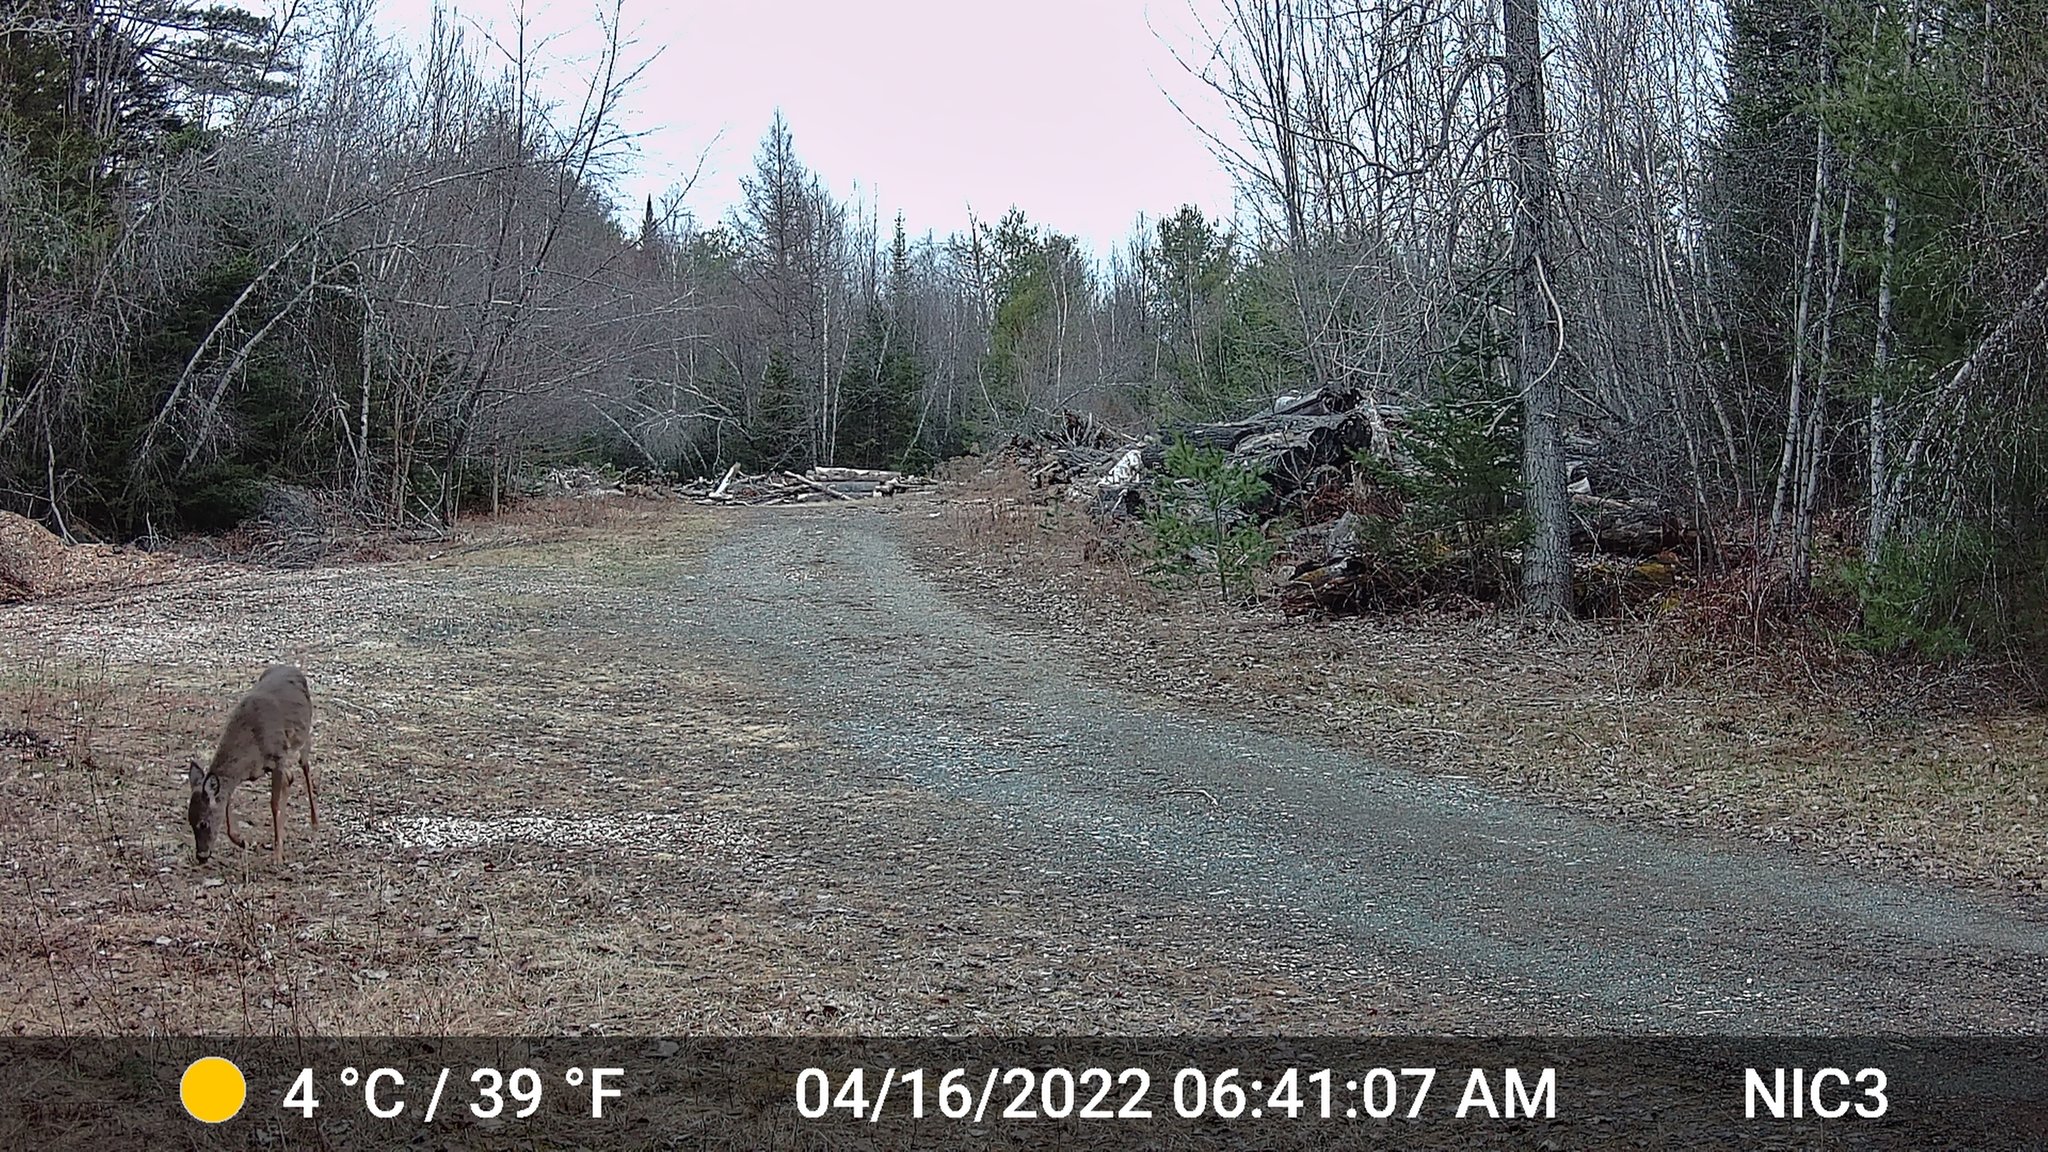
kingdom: Animalia
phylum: Chordata
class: Mammalia
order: Artiodactyla
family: Cervidae
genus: Odocoileus
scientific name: Odocoileus virginianus
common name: White-tailed deer
